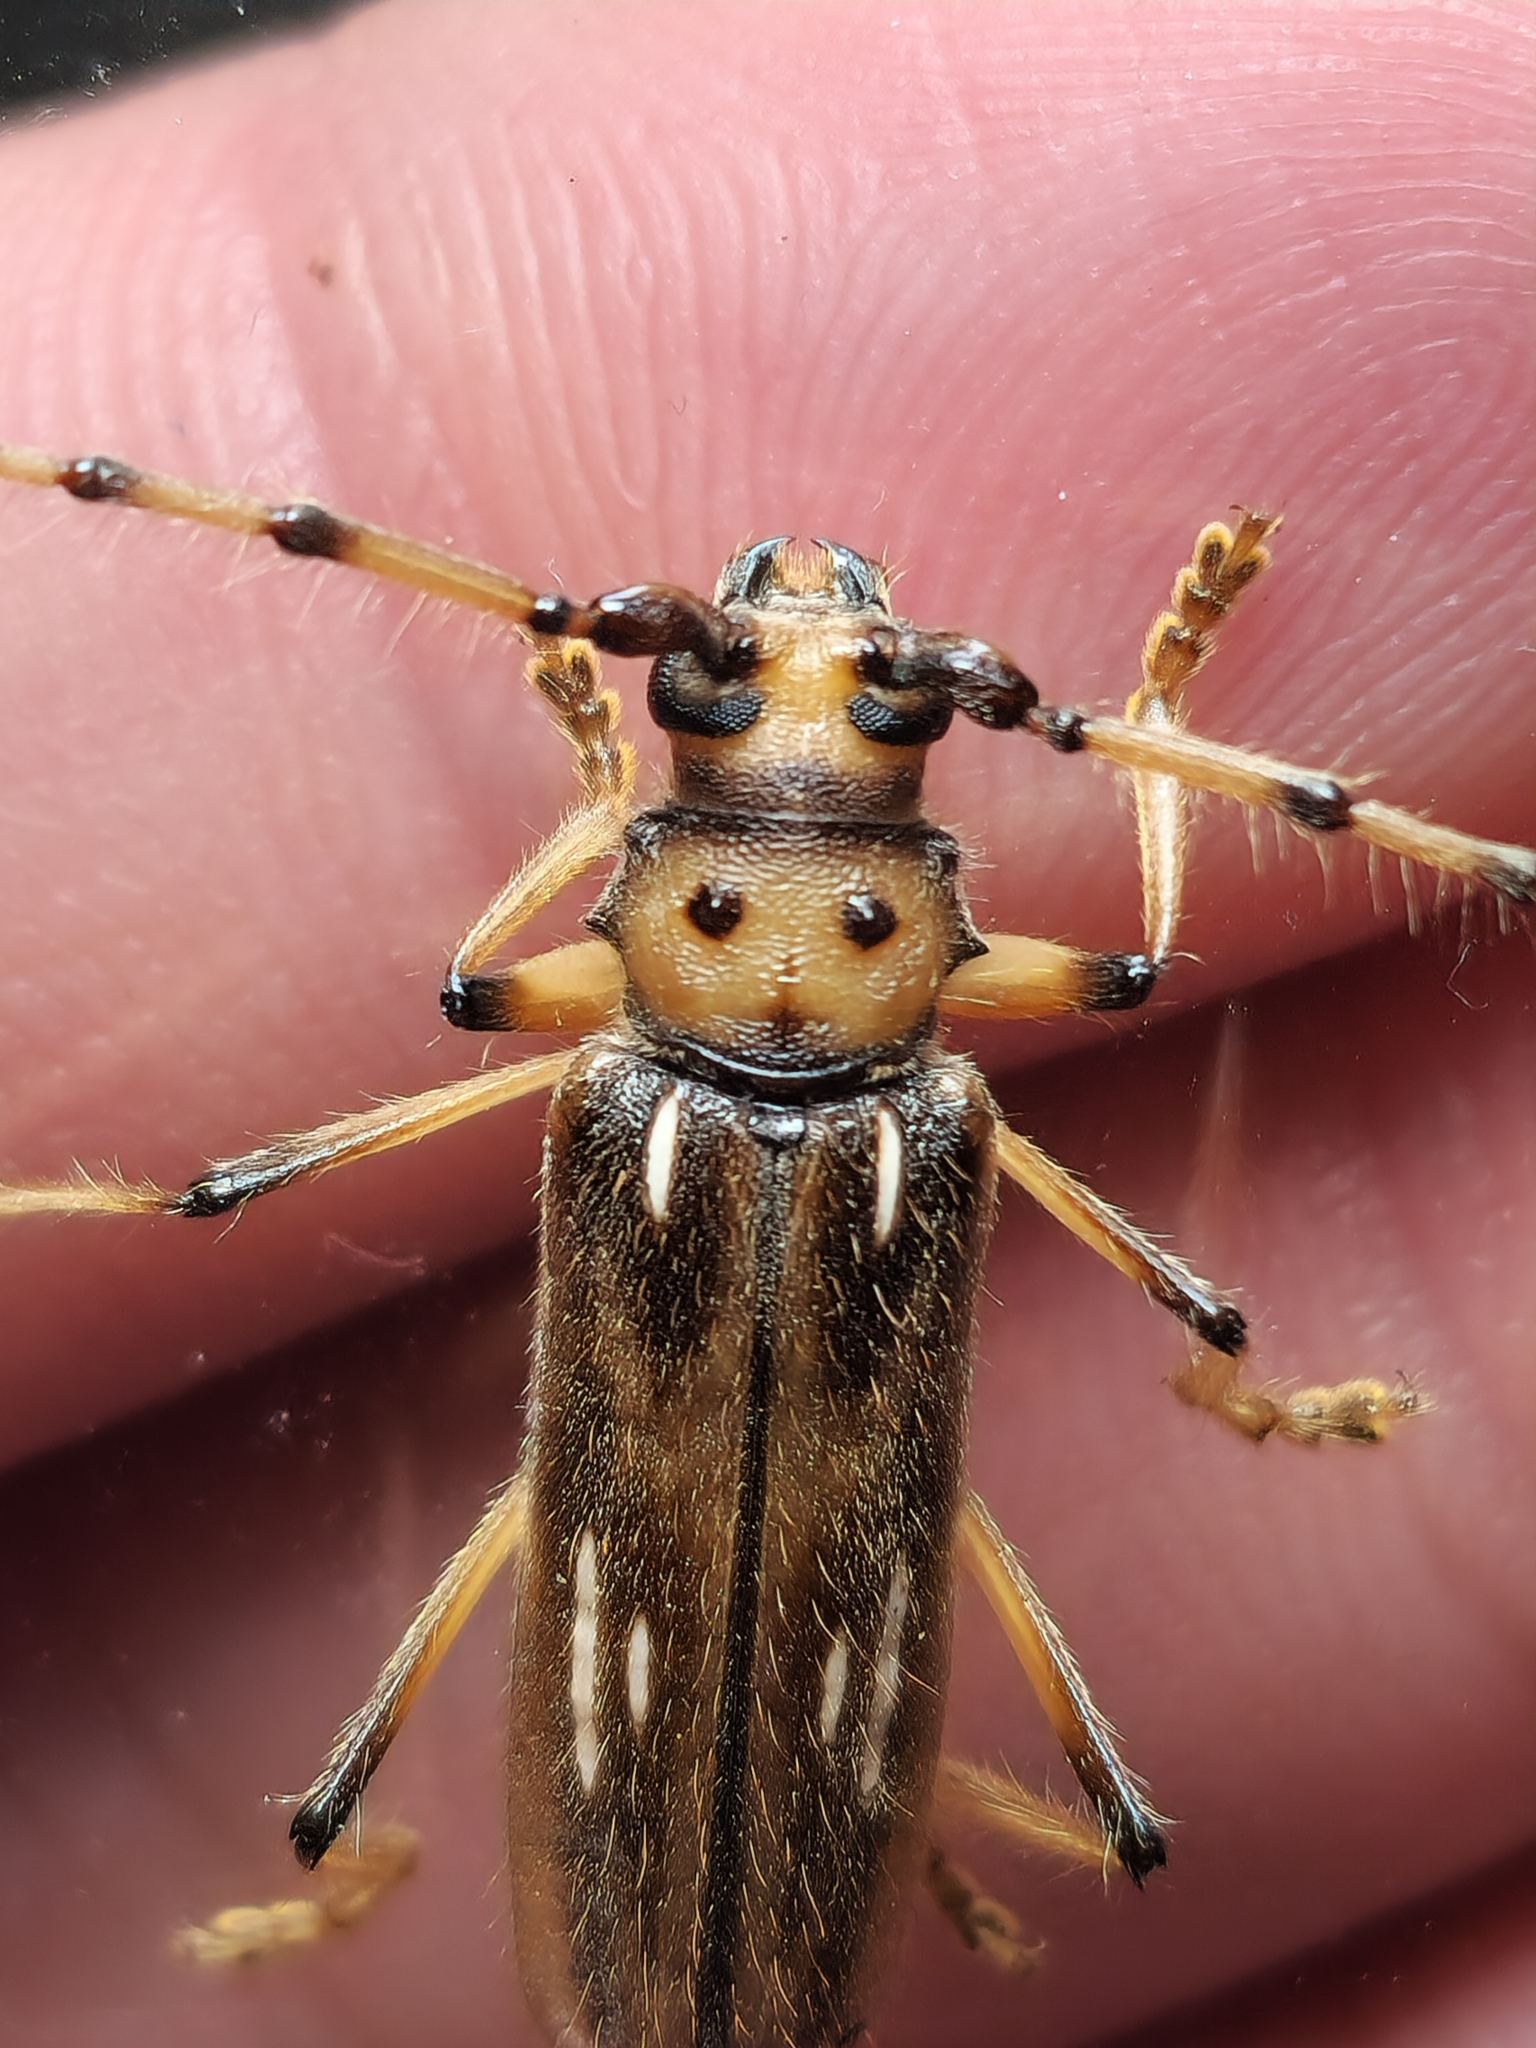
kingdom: Animalia
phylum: Arthropoda
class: Insecta
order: Coleoptera
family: Cerambycidae
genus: Uncieburia
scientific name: Uncieburia quadrilineata
